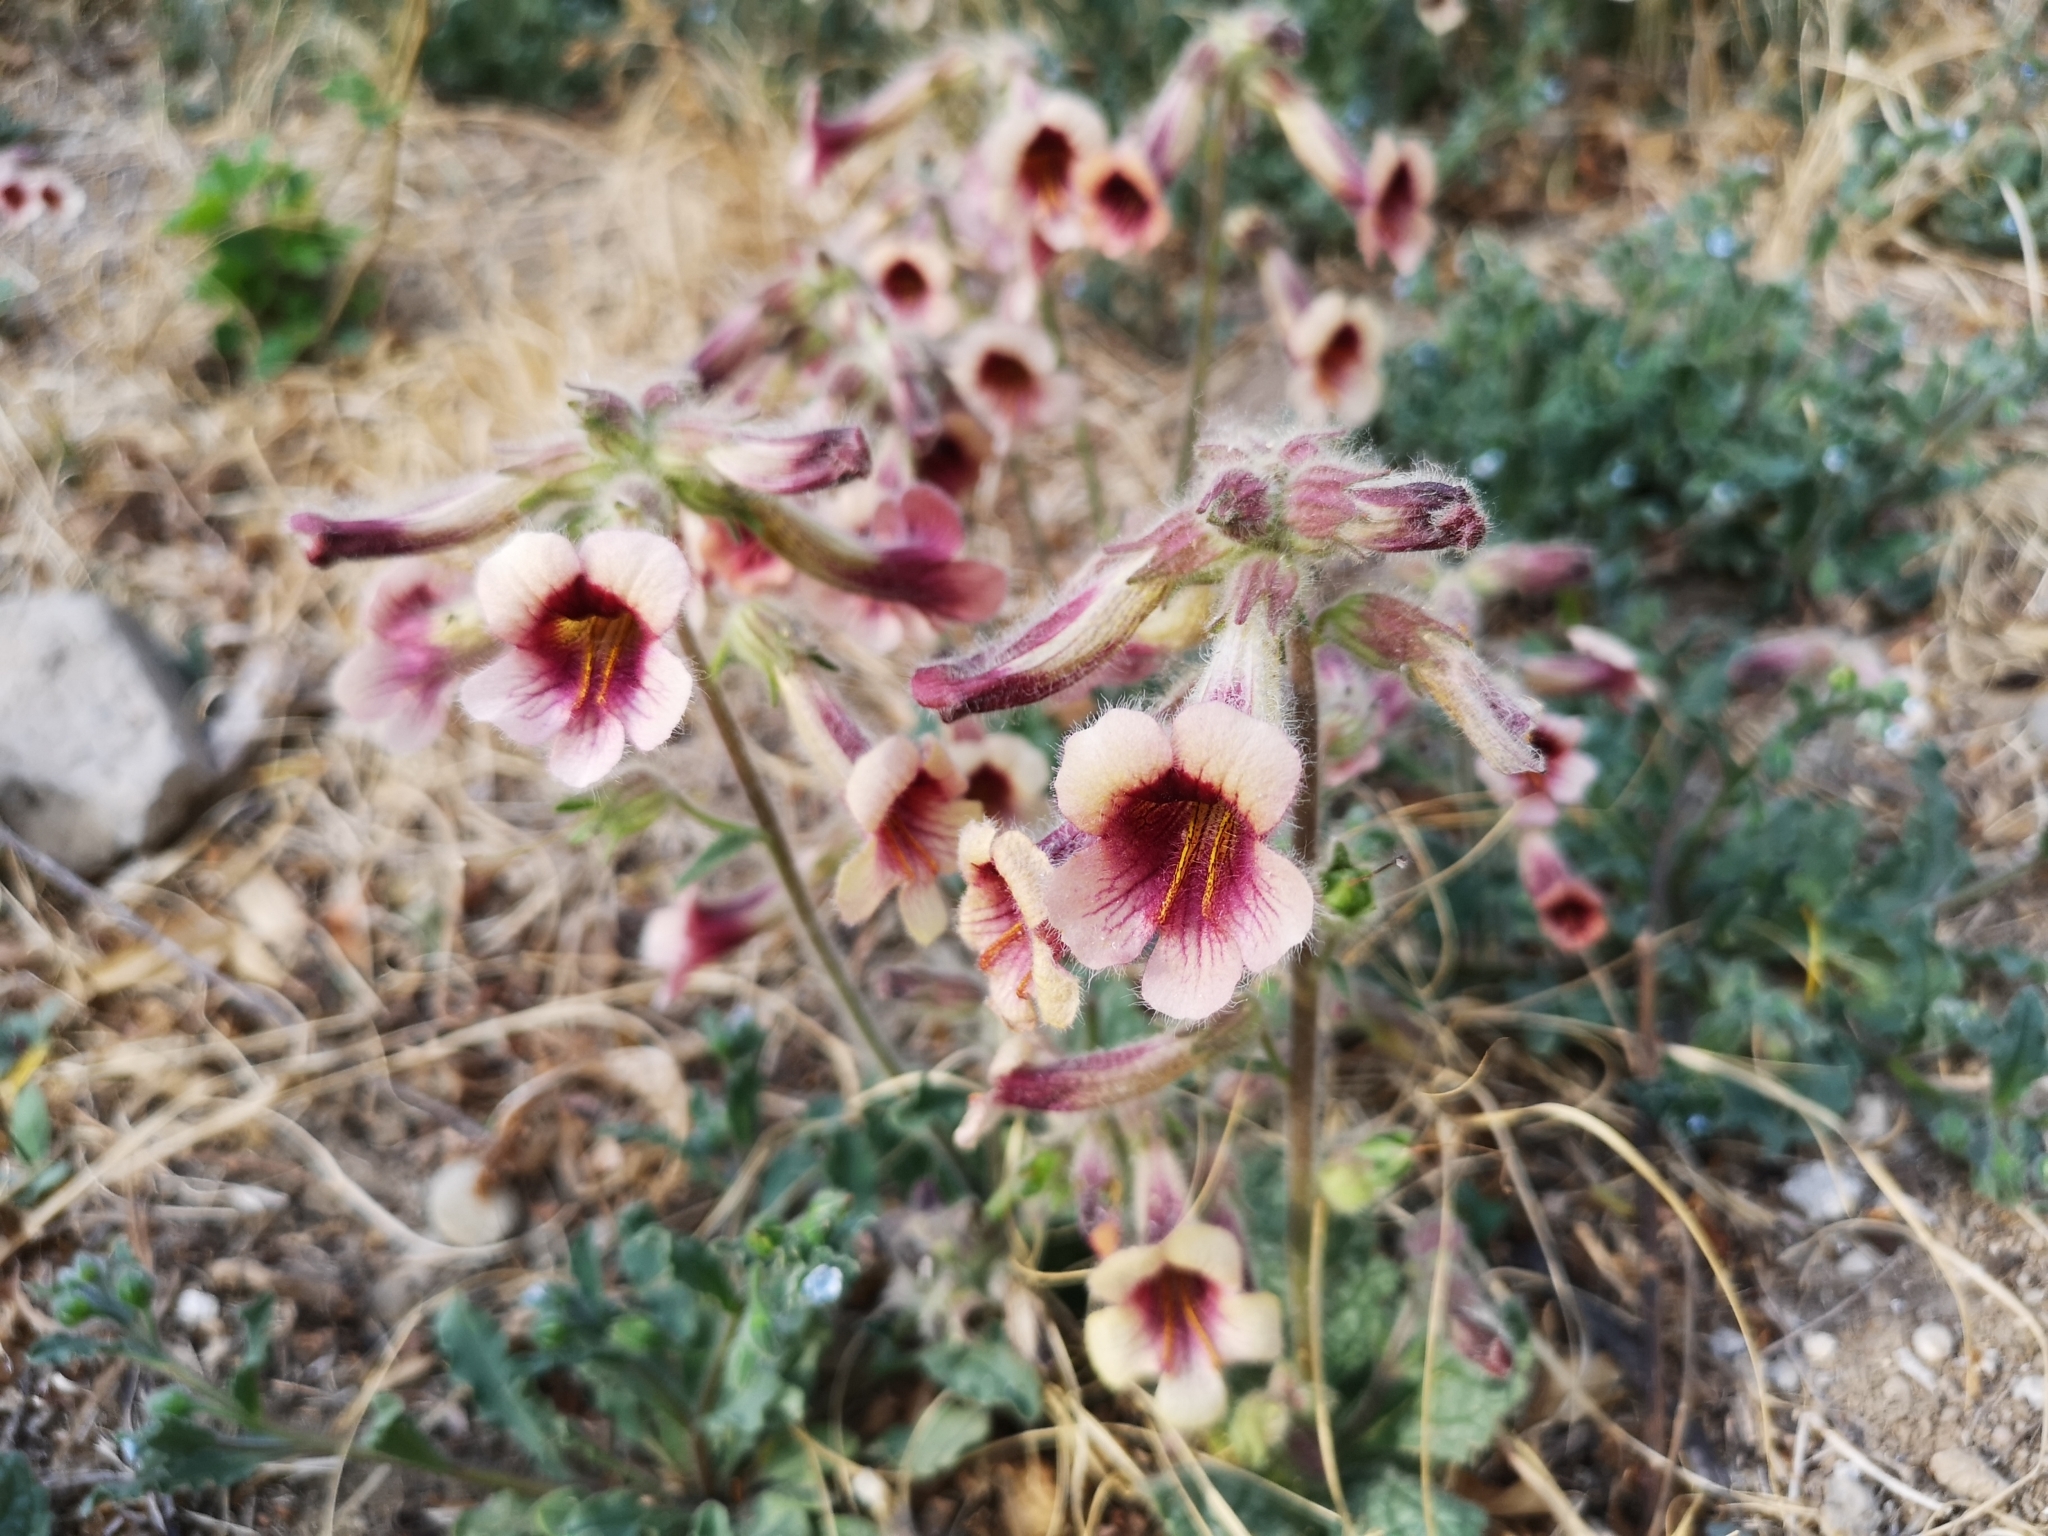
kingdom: Plantae
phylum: Tracheophyta
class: Magnoliopsida
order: Lamiales
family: Rehmanniaceae
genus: Rehmannia
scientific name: Rehmannia glutinosa
